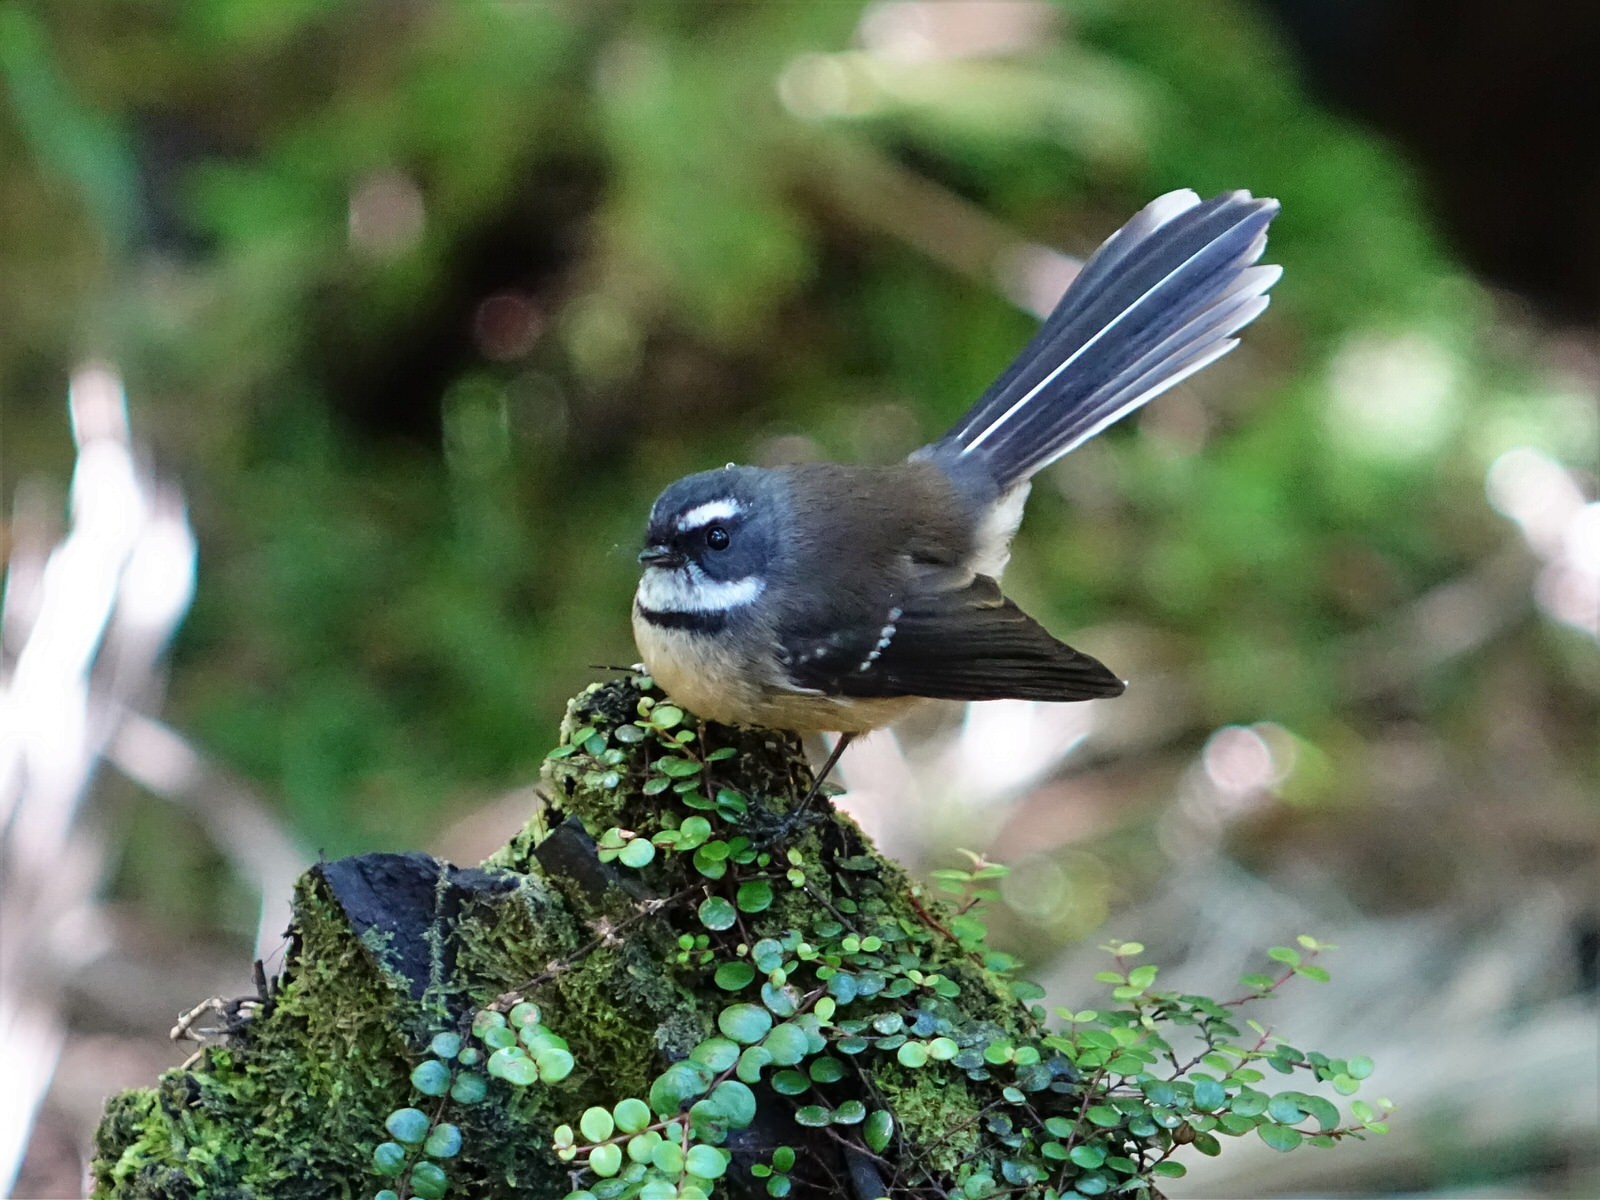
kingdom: Animalia
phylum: Chordata
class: Aves
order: Passeriformes
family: Rhipiduridae
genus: Rhipidura
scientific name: Rhipidura fuliginosa
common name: New zealand fantail
